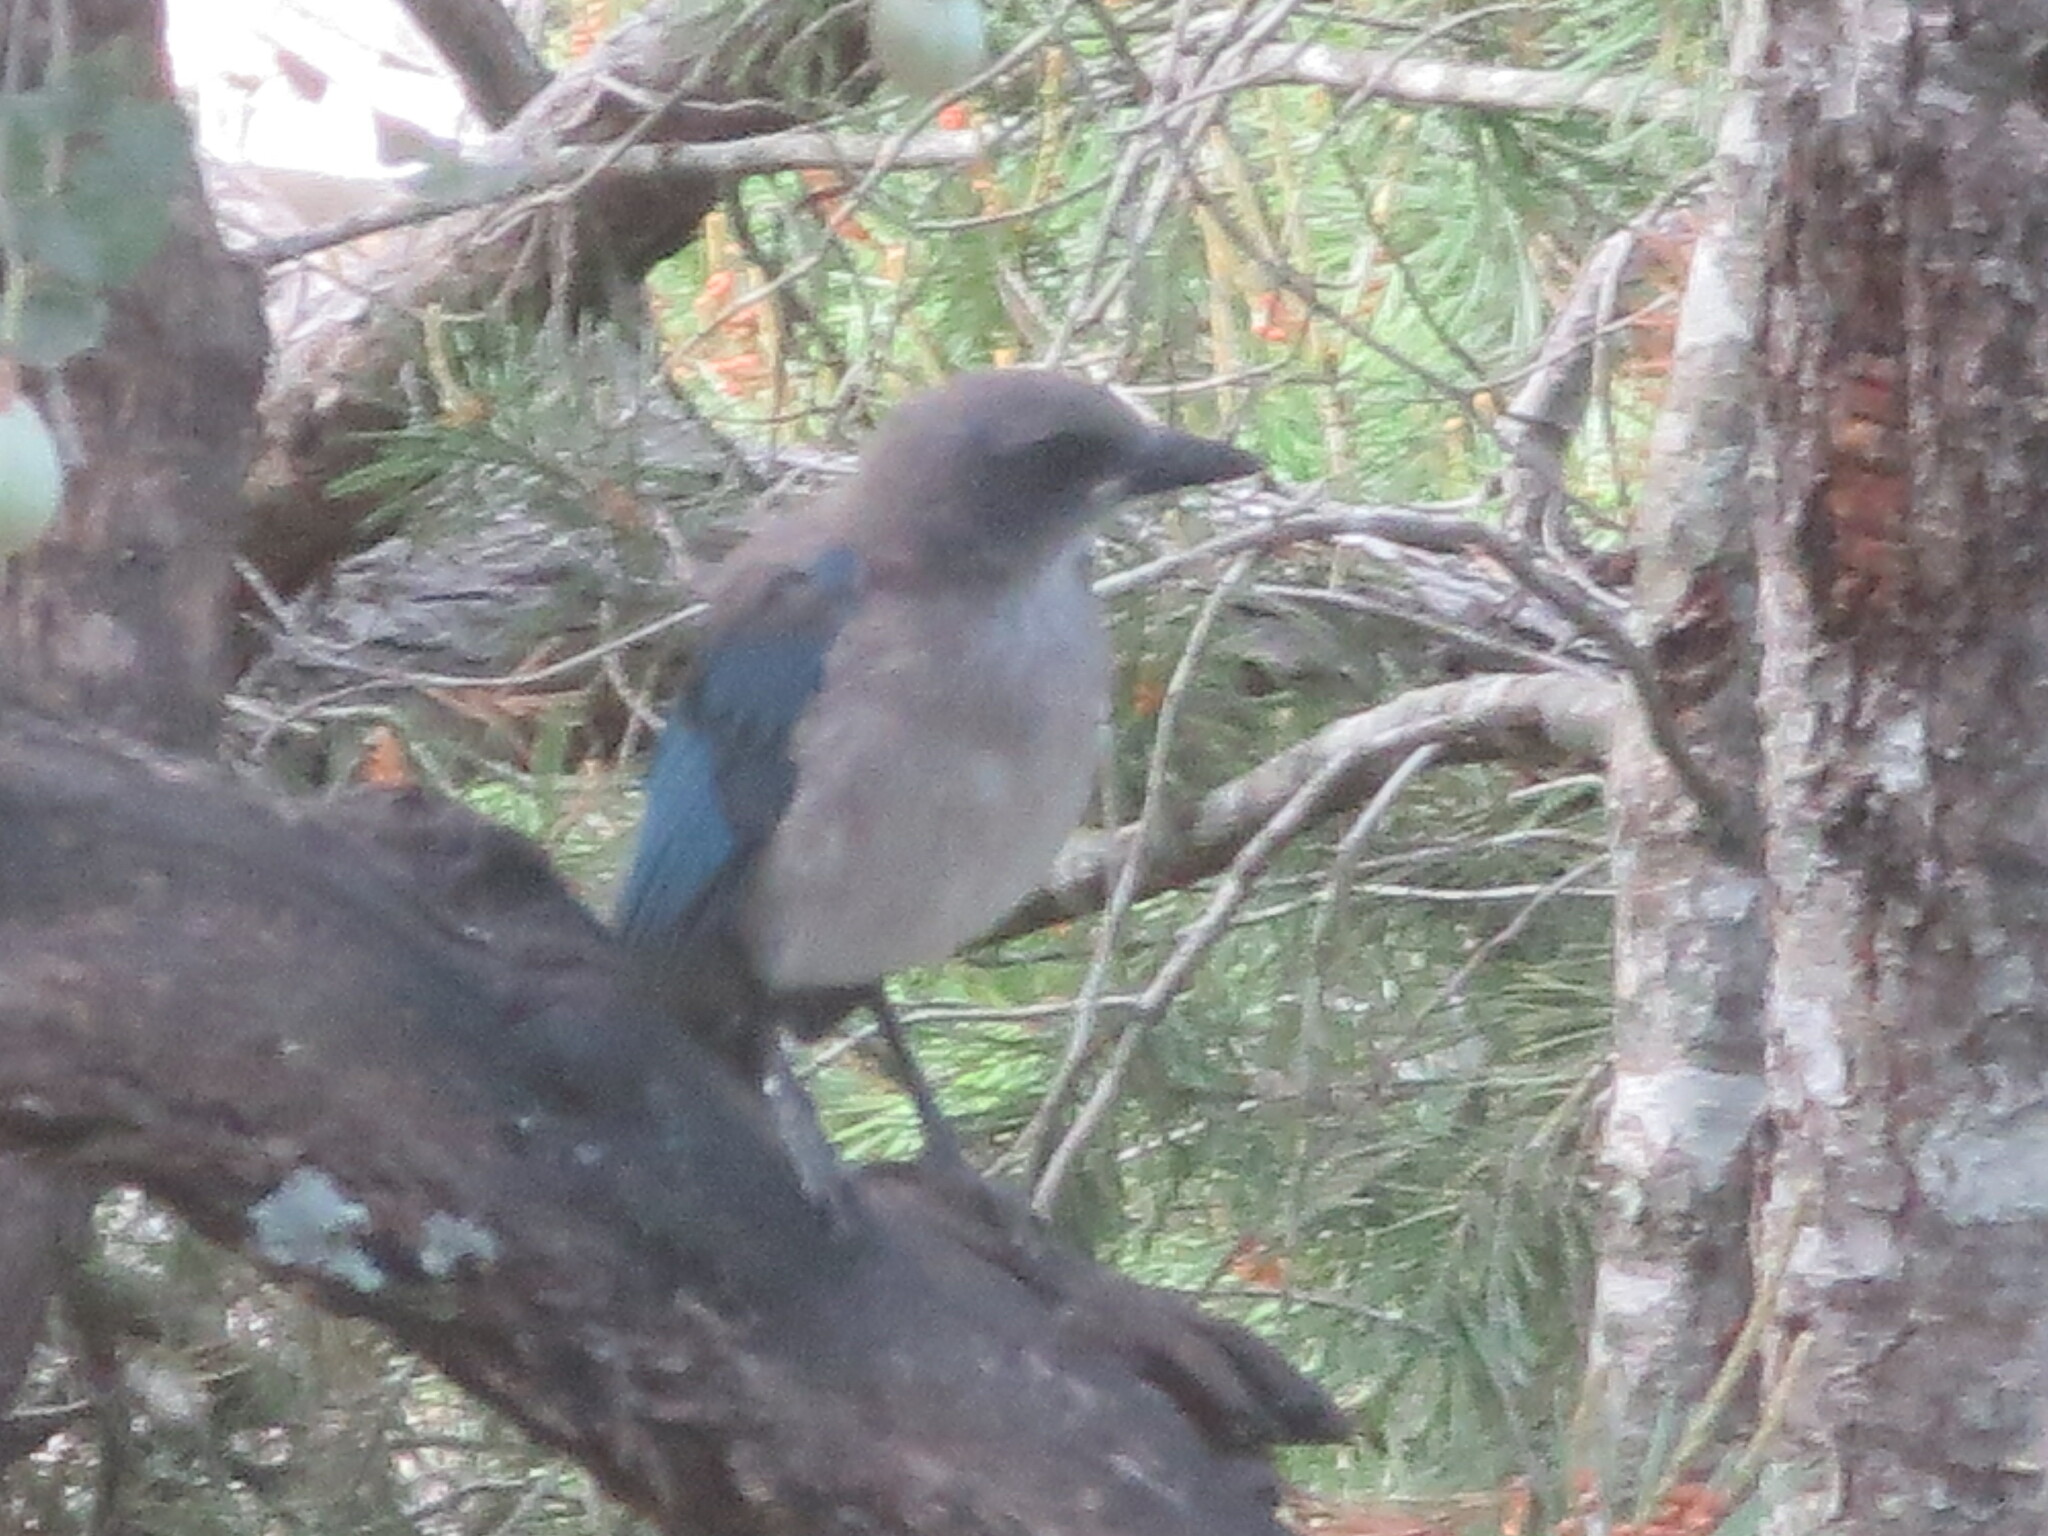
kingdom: Animalia
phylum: Chordata
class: Aves
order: Passeriformes
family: Corvidae
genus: Aphelocoma
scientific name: Aphelocoma woodhouseii
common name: Woodhouse's scrub-jay
